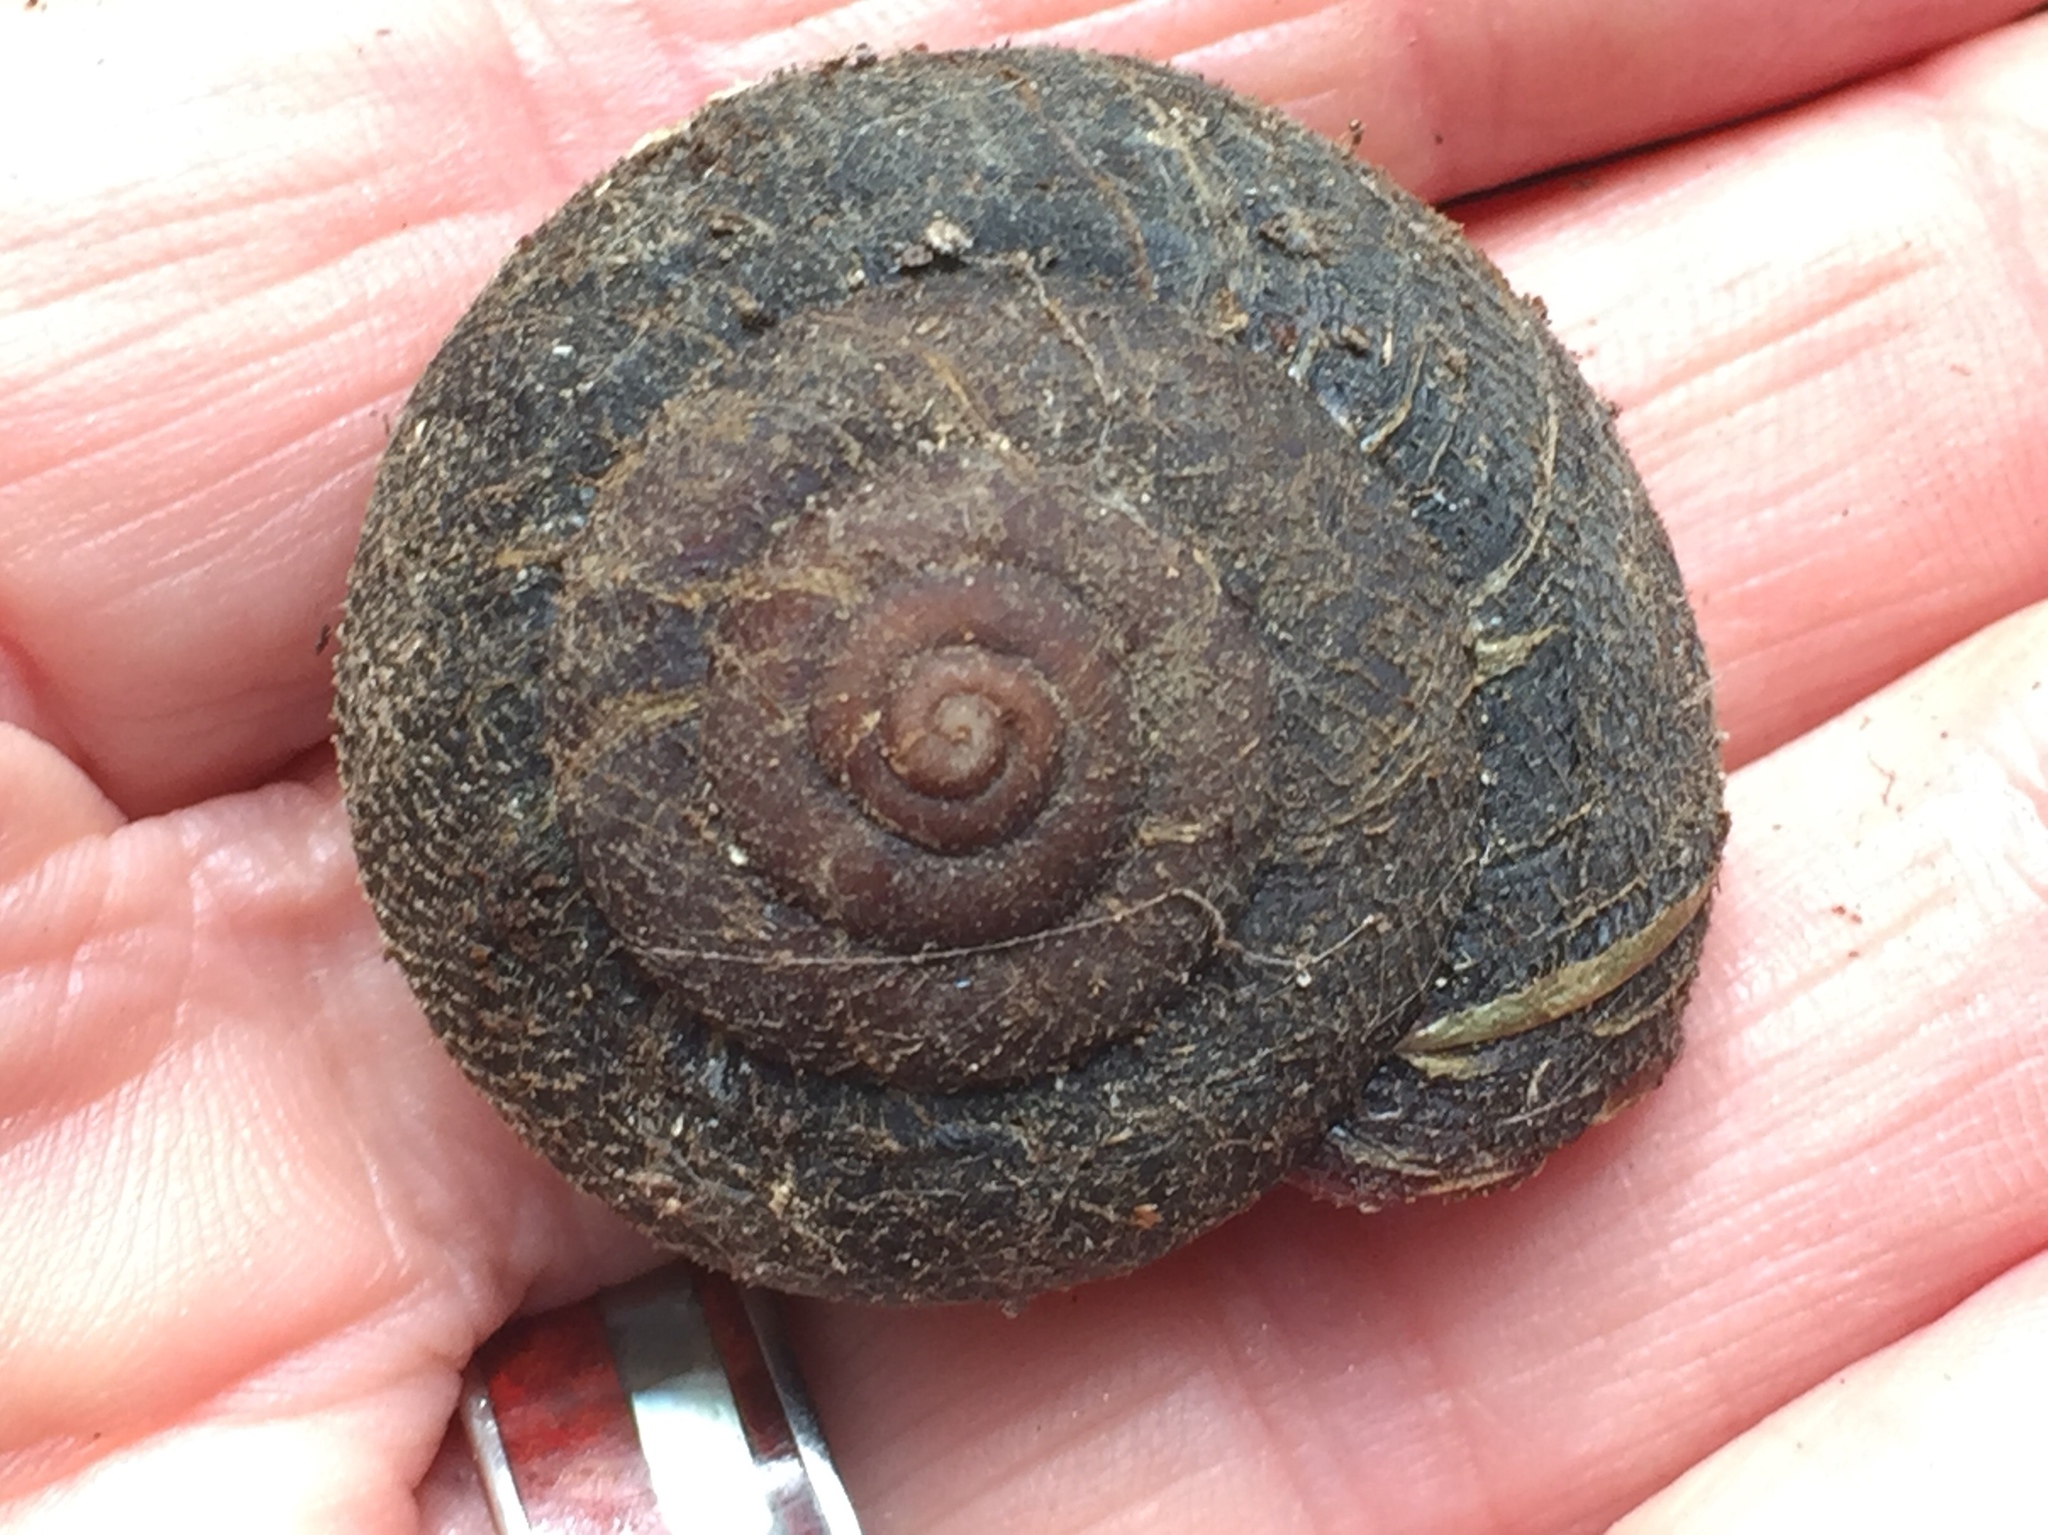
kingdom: Animalia
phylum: Mollusca
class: Gastropoda
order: Stylommatophora
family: Xanthonychidae
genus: Monadenia
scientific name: Monadenia infumata
